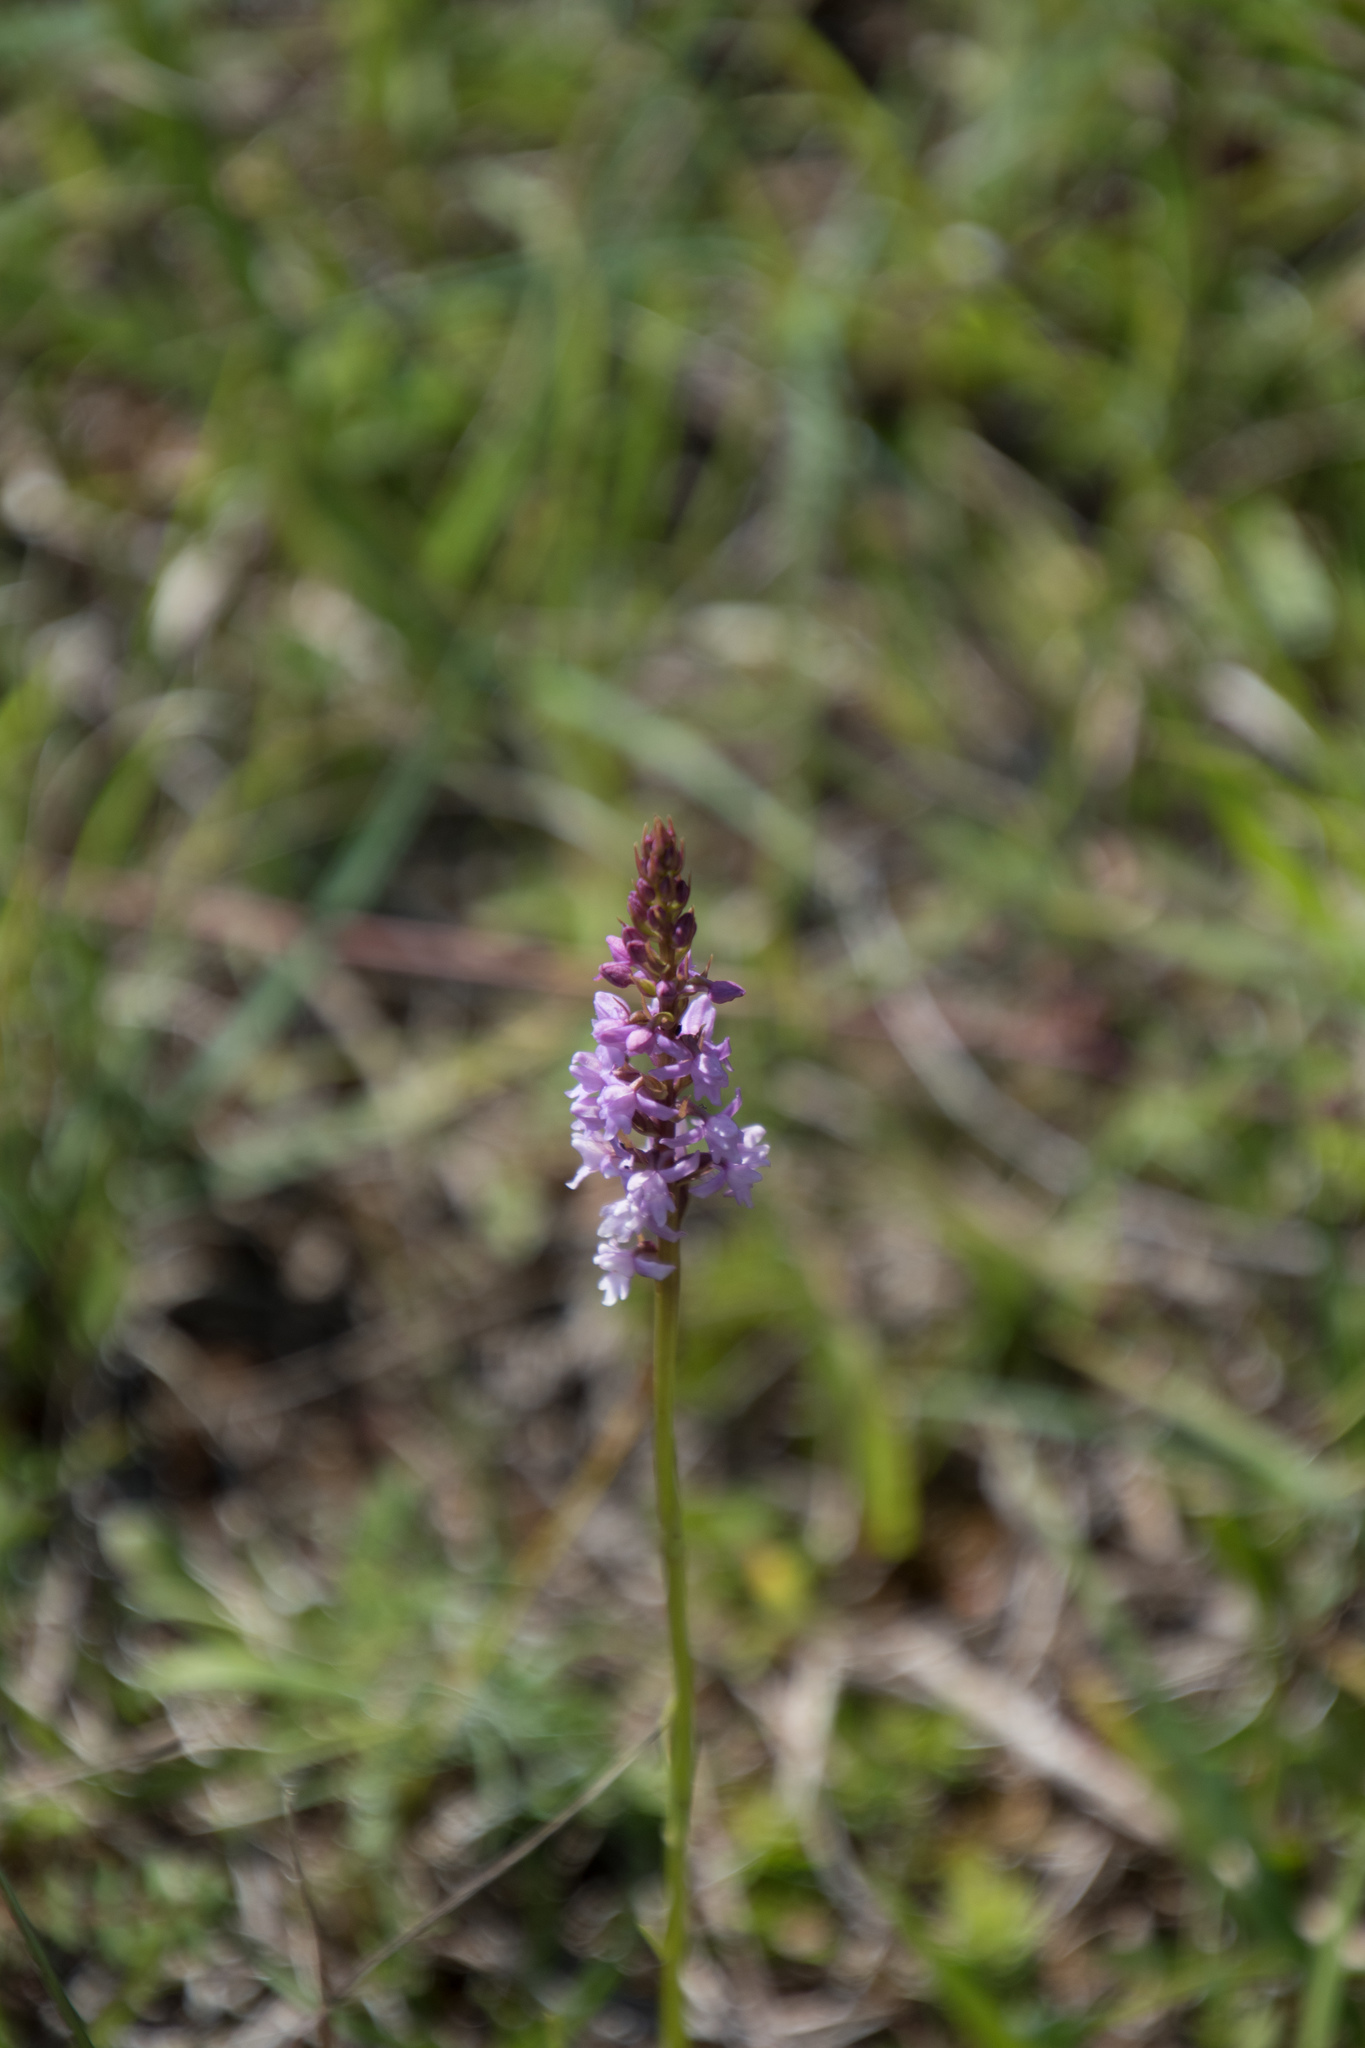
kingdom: Plantae
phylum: Tracheophyta
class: Liliopsida
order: Asparagales
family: Orchidaceae
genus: Gymnadenia
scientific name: Gymnadenia odoratissima
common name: Scented gymnadenia
